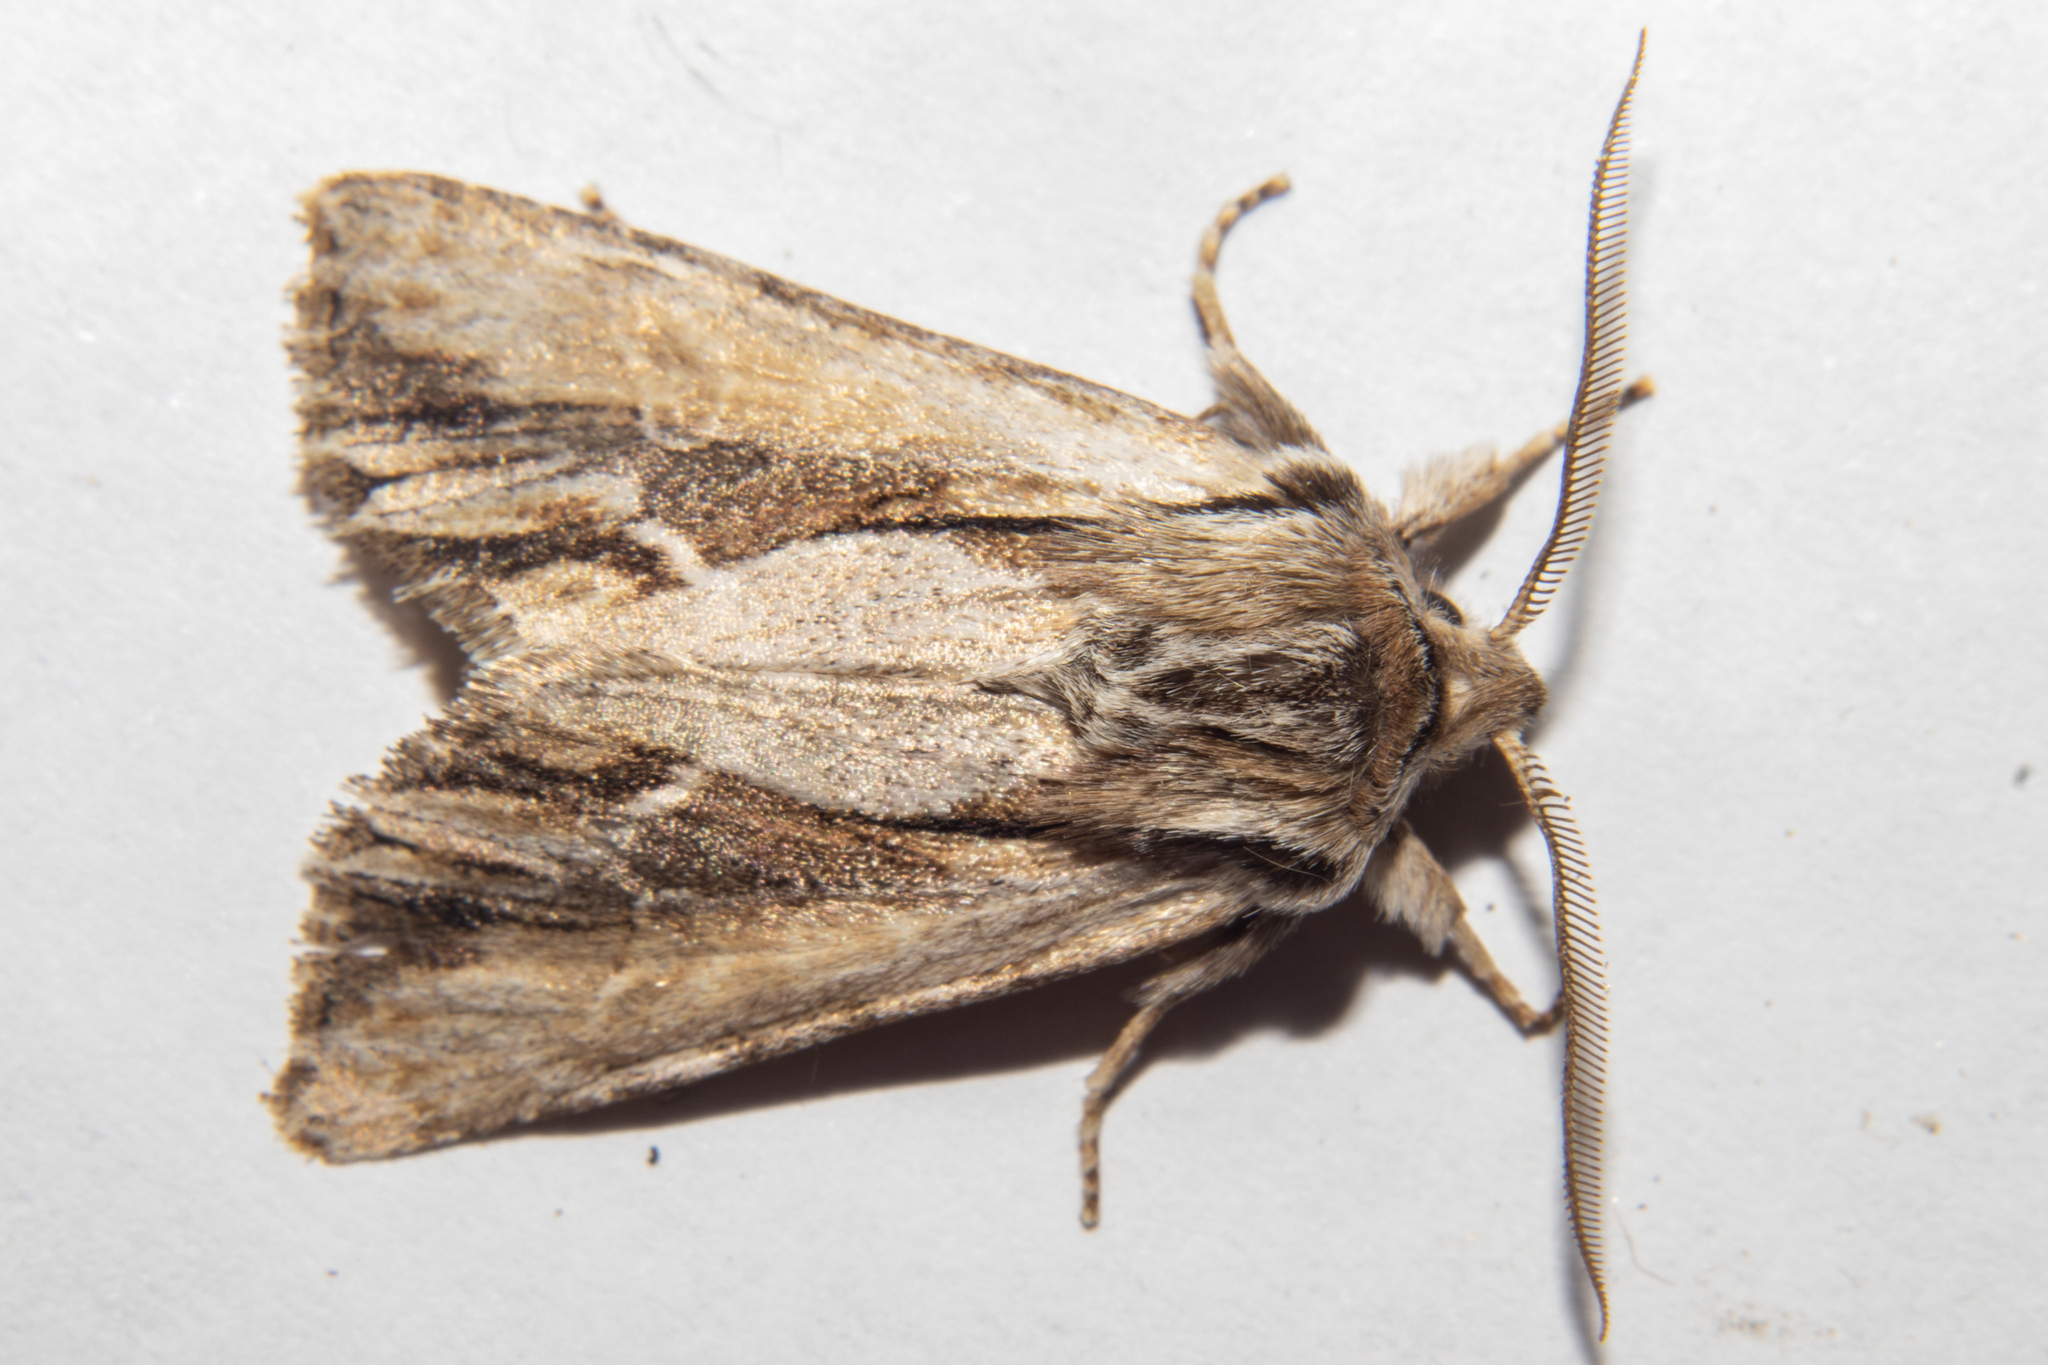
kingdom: Animalia
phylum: Arthropoda
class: Insecta
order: Lepidoptera
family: Noctuidae
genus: Ichneutica
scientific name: Ichneutica
